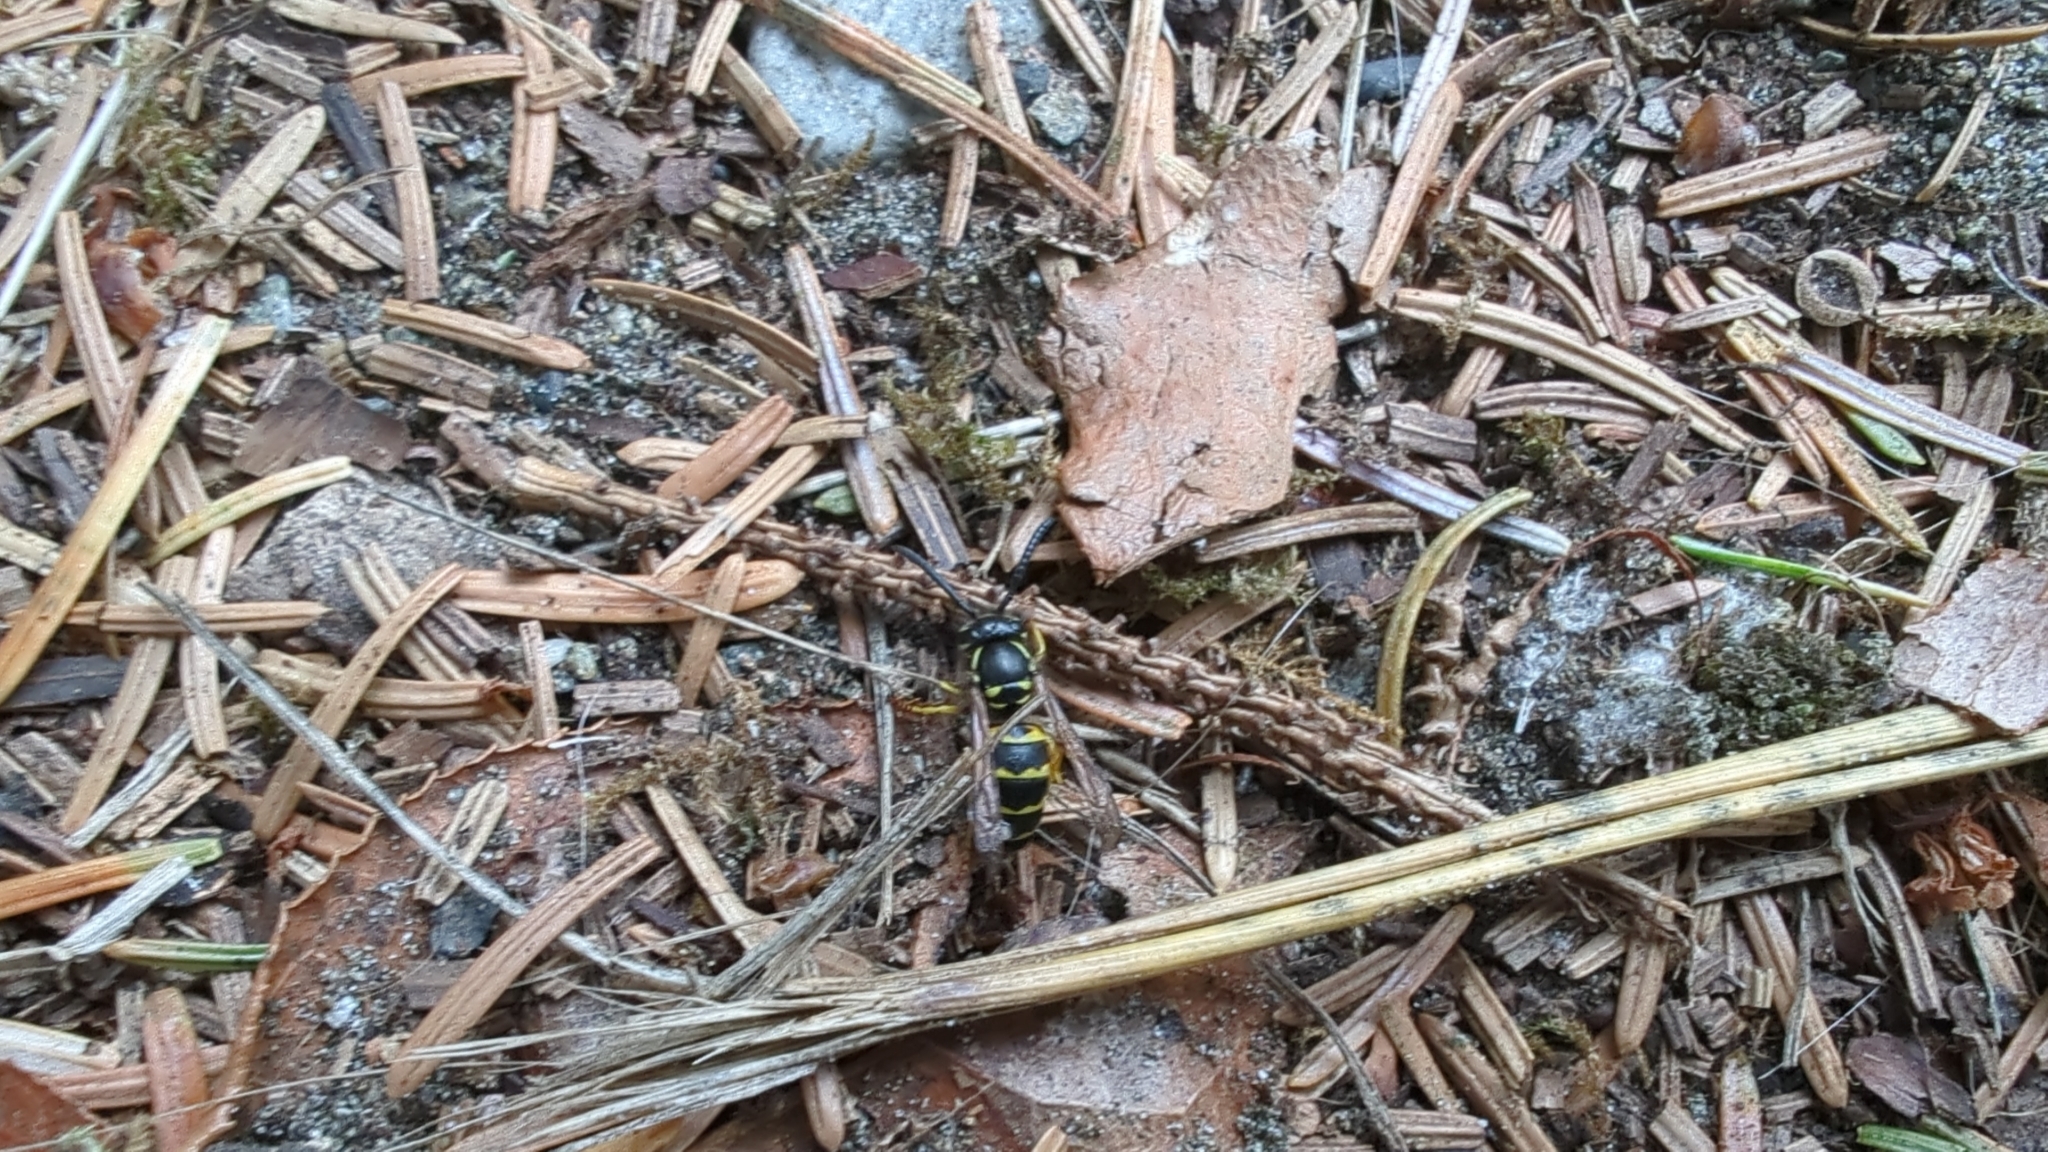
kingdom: Animalia
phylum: Arthropoda
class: Insecta
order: Hymenoptera
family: Vespidae
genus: Vespula
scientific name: Vespula alascensis
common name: Alaska yellowjacket
